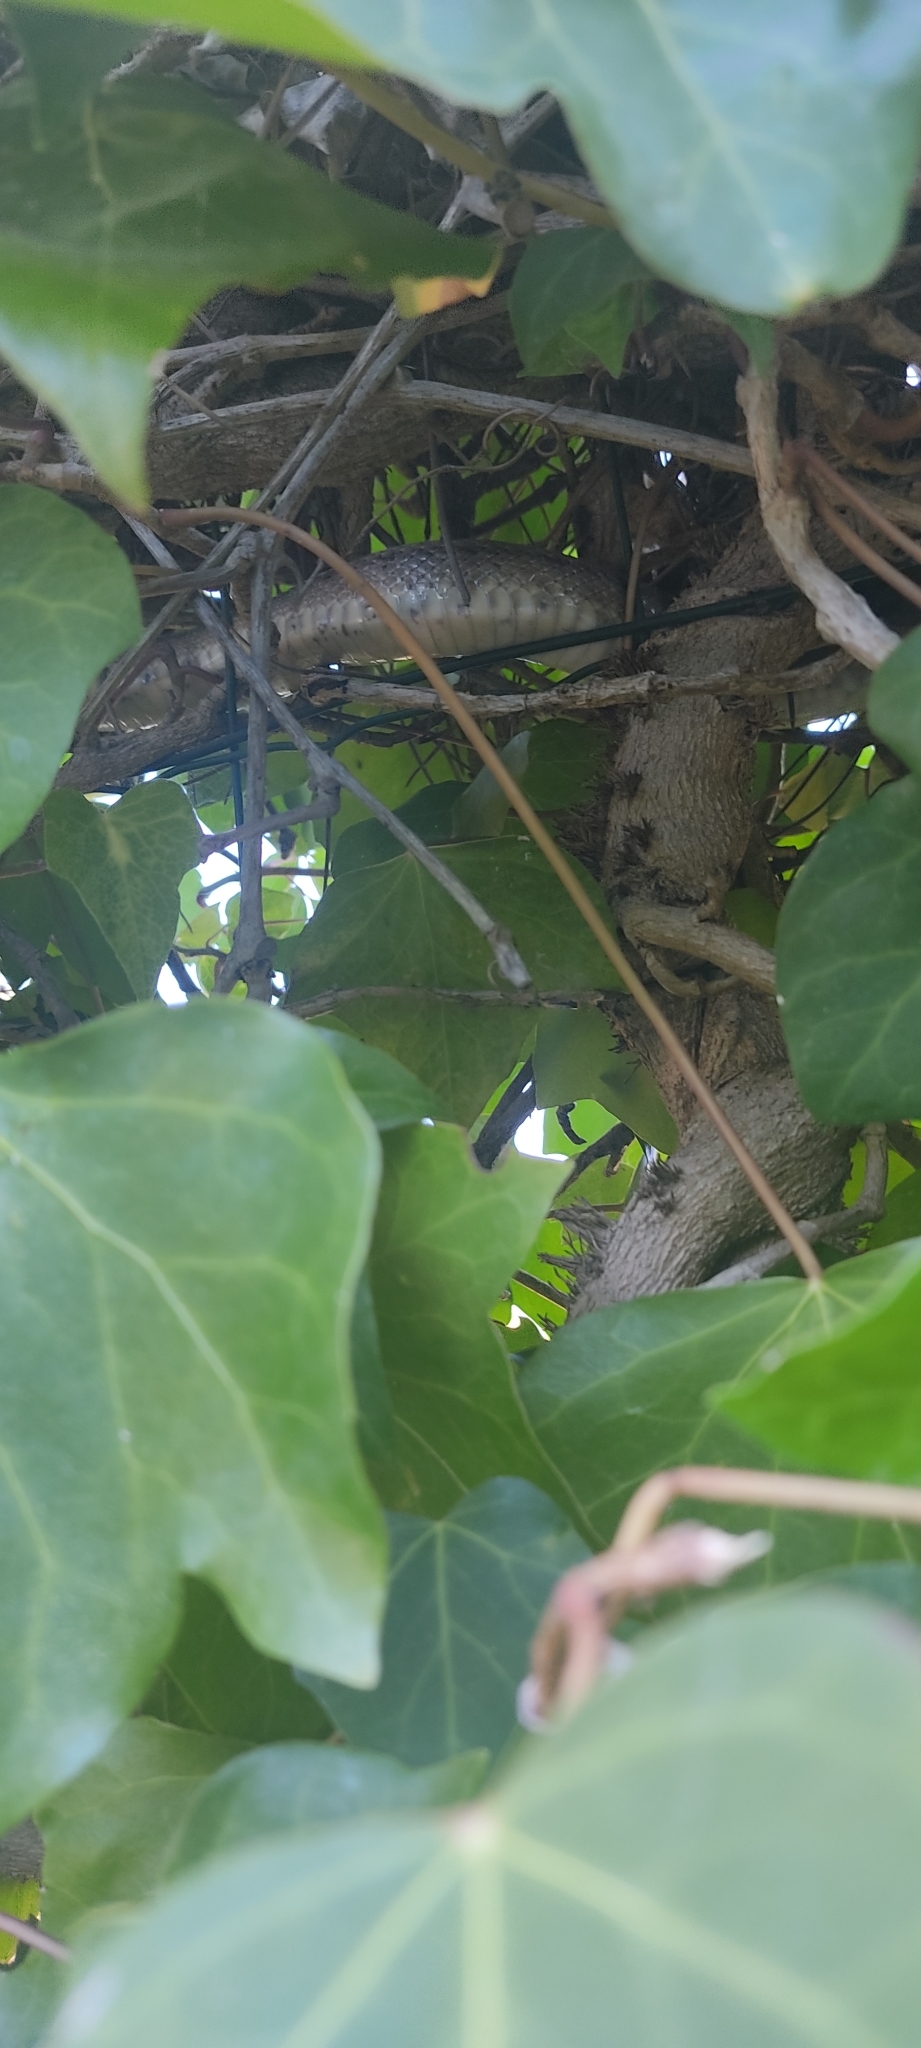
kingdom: Animalia
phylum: Chordata
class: Squamata
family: Colubridae
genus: Zamenis
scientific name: Zamenis scalaris
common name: Ladder snakes
